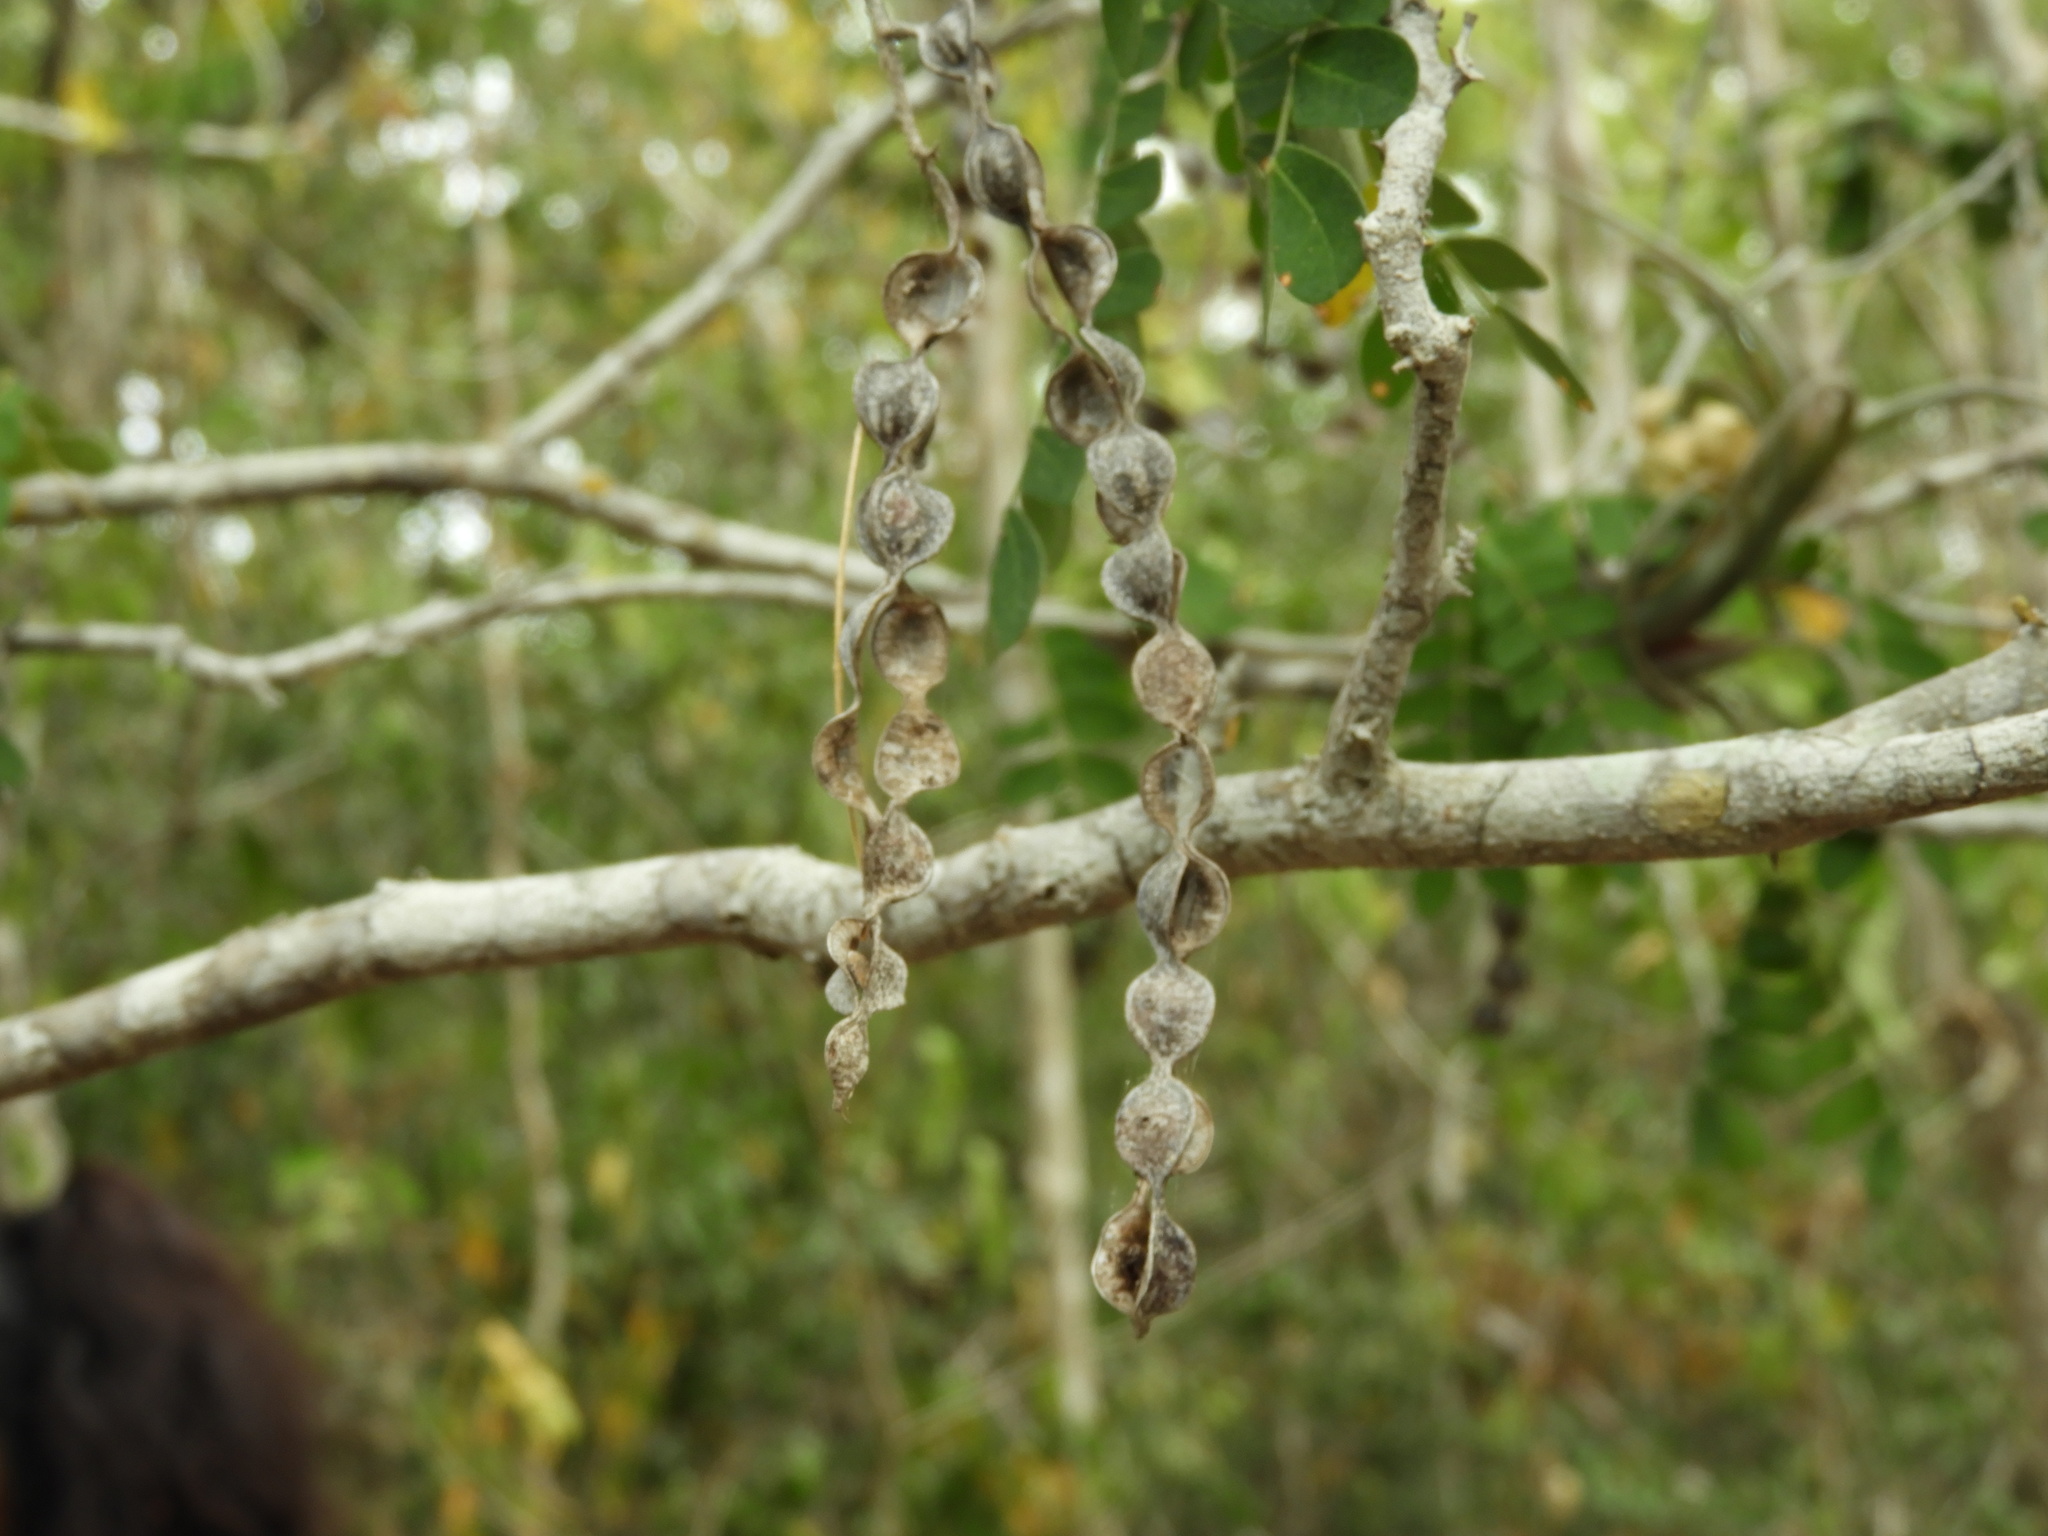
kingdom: Plantae
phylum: Tracheophyta
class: Magnoliopsida
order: Fabales
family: Fabaceae
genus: Pityrocarpa
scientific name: Pityrocarpa obliqua
